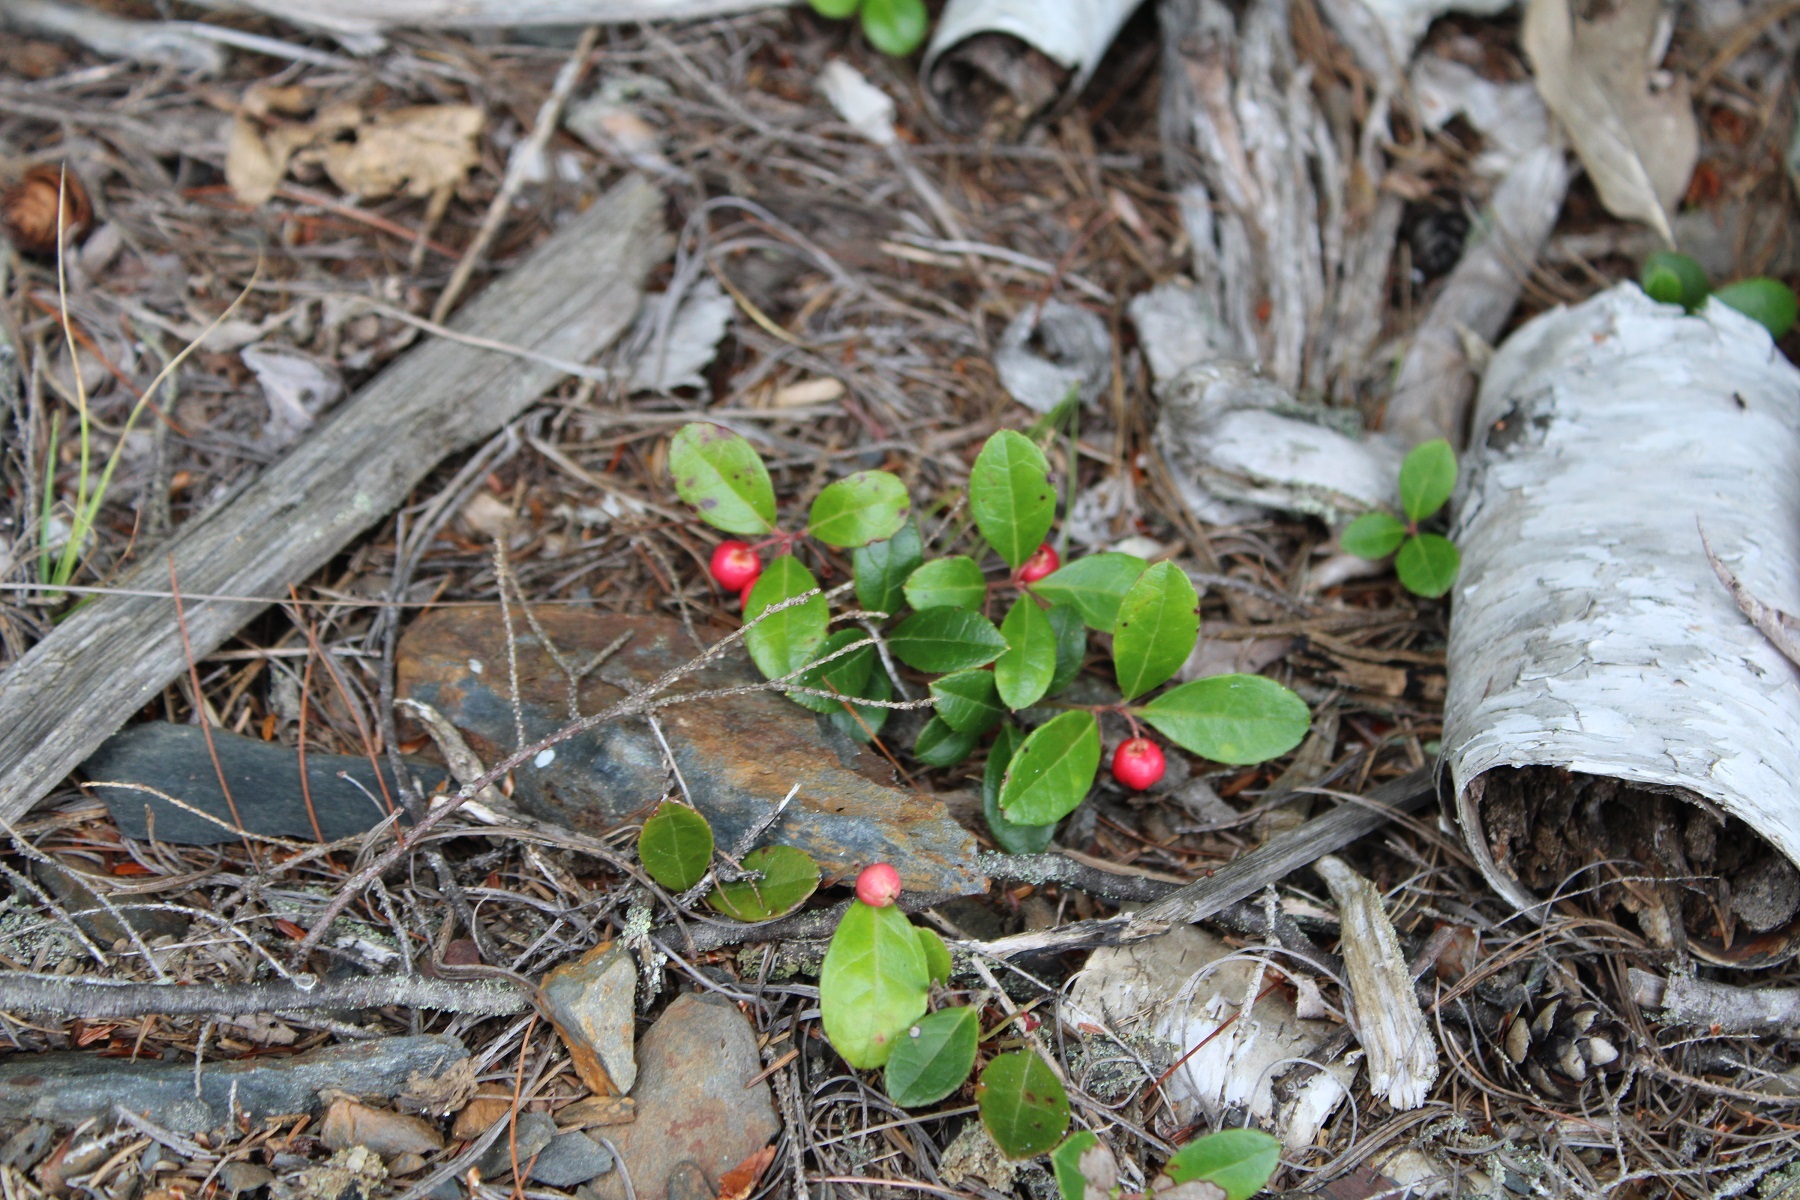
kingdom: Plantae
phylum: Tracheophyta
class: Magnoliopsida
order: Ericales
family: Ericaceae
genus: Gaultheria
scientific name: Gaultheria procumbens
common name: Checkerberry
